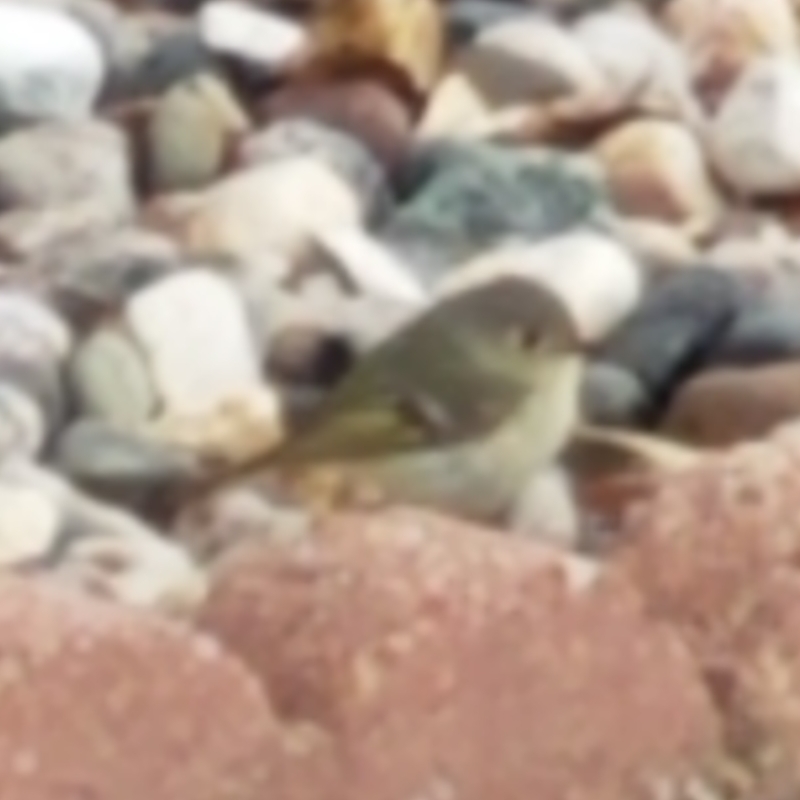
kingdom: Animalia
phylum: Chordata
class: Aves
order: Passeriformes
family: Regulidae
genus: Regulus
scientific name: Regulus calendula
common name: Ruby-crowned kinglet
